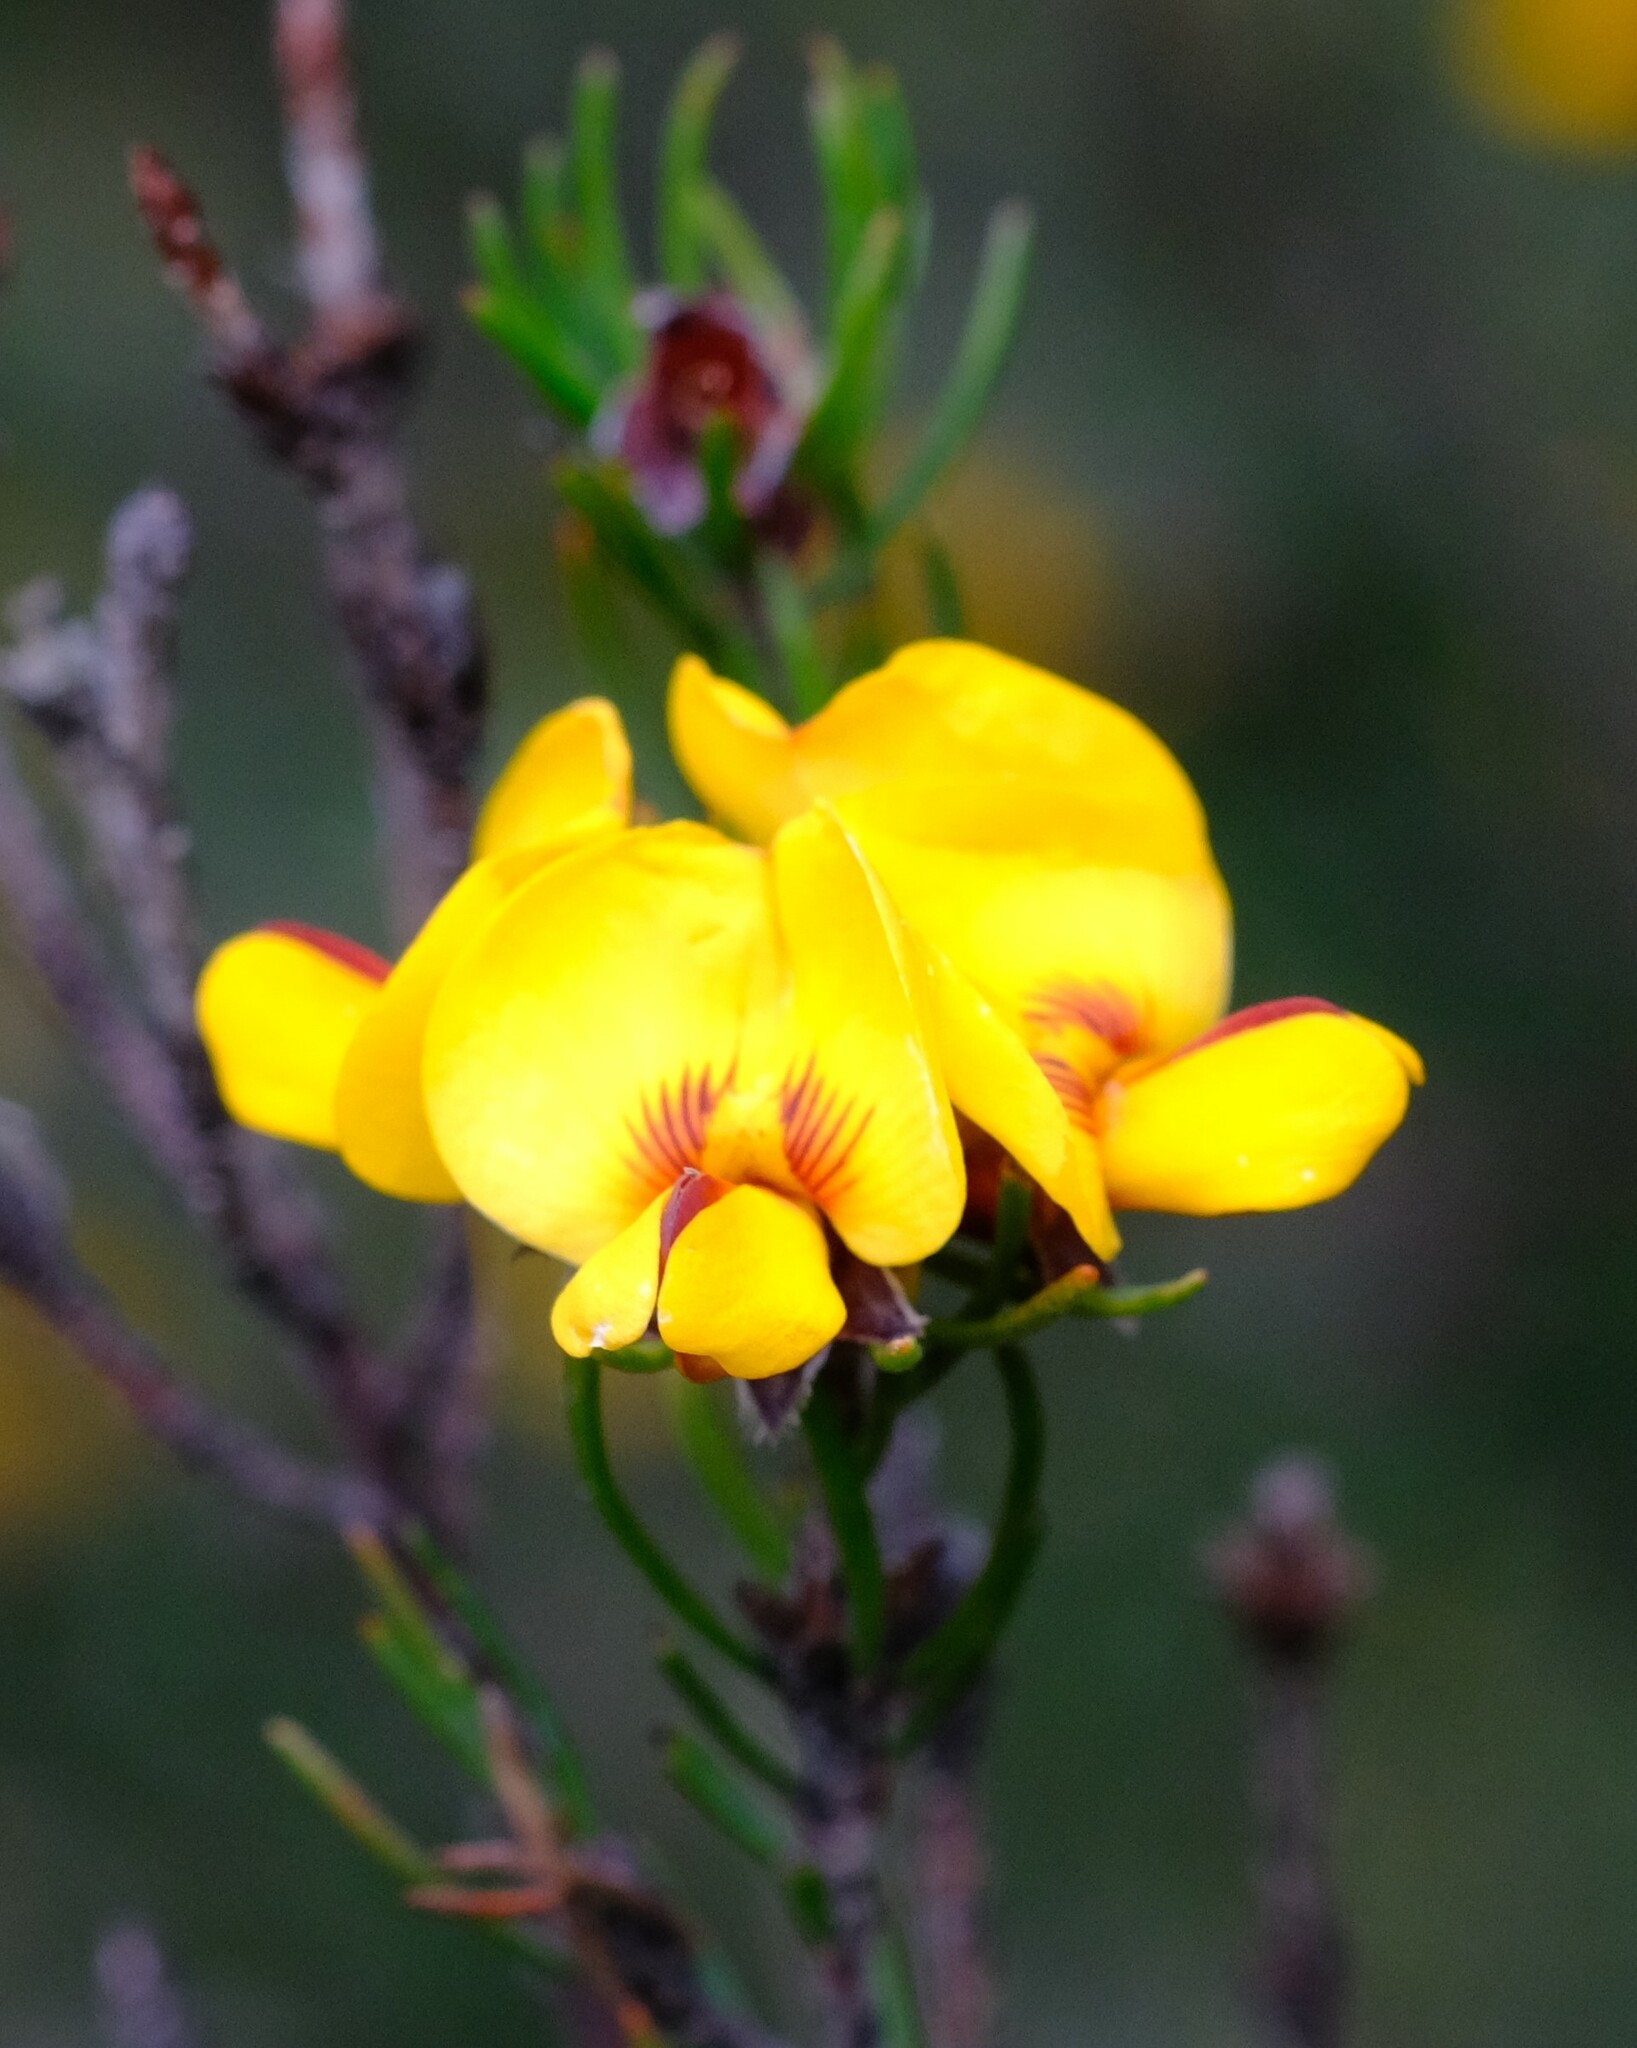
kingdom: Plantae
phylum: Tracheophyta
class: Magnoliopsida
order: Fabales
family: Fabaceae
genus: Pultenaea
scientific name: Pultenaea mollis
